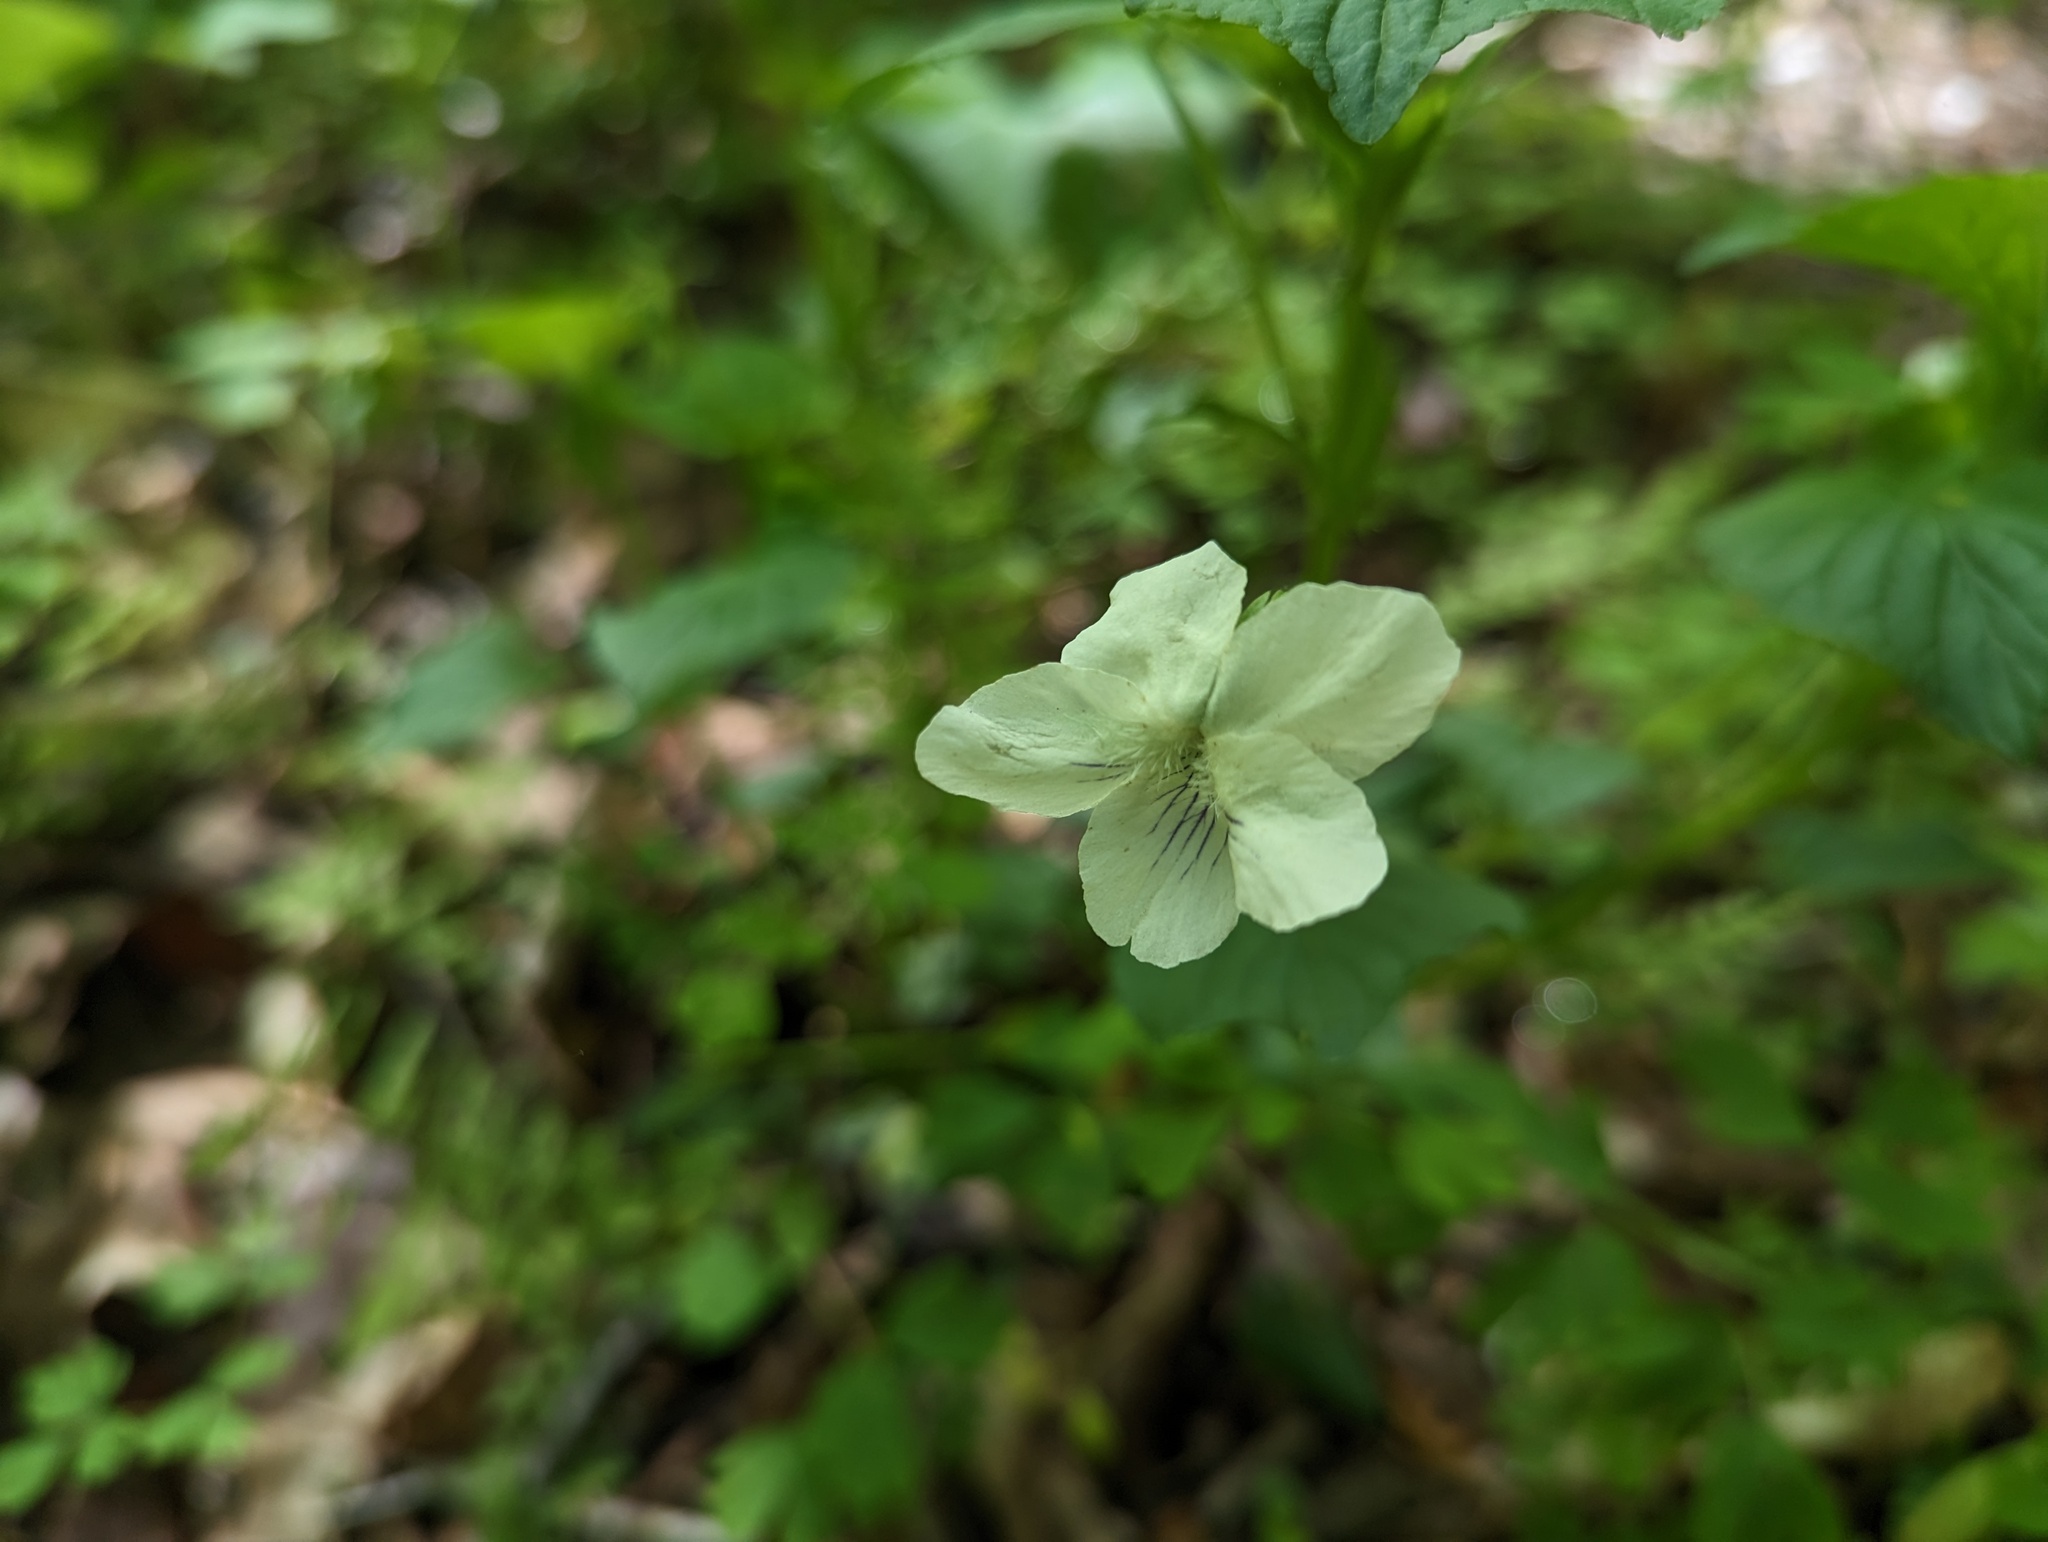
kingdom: Plantae
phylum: Tracheophyta
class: Magnoliopsida
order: Malpighiales
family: Violaceae
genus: Viola
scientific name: Viola striata
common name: Cream violet
